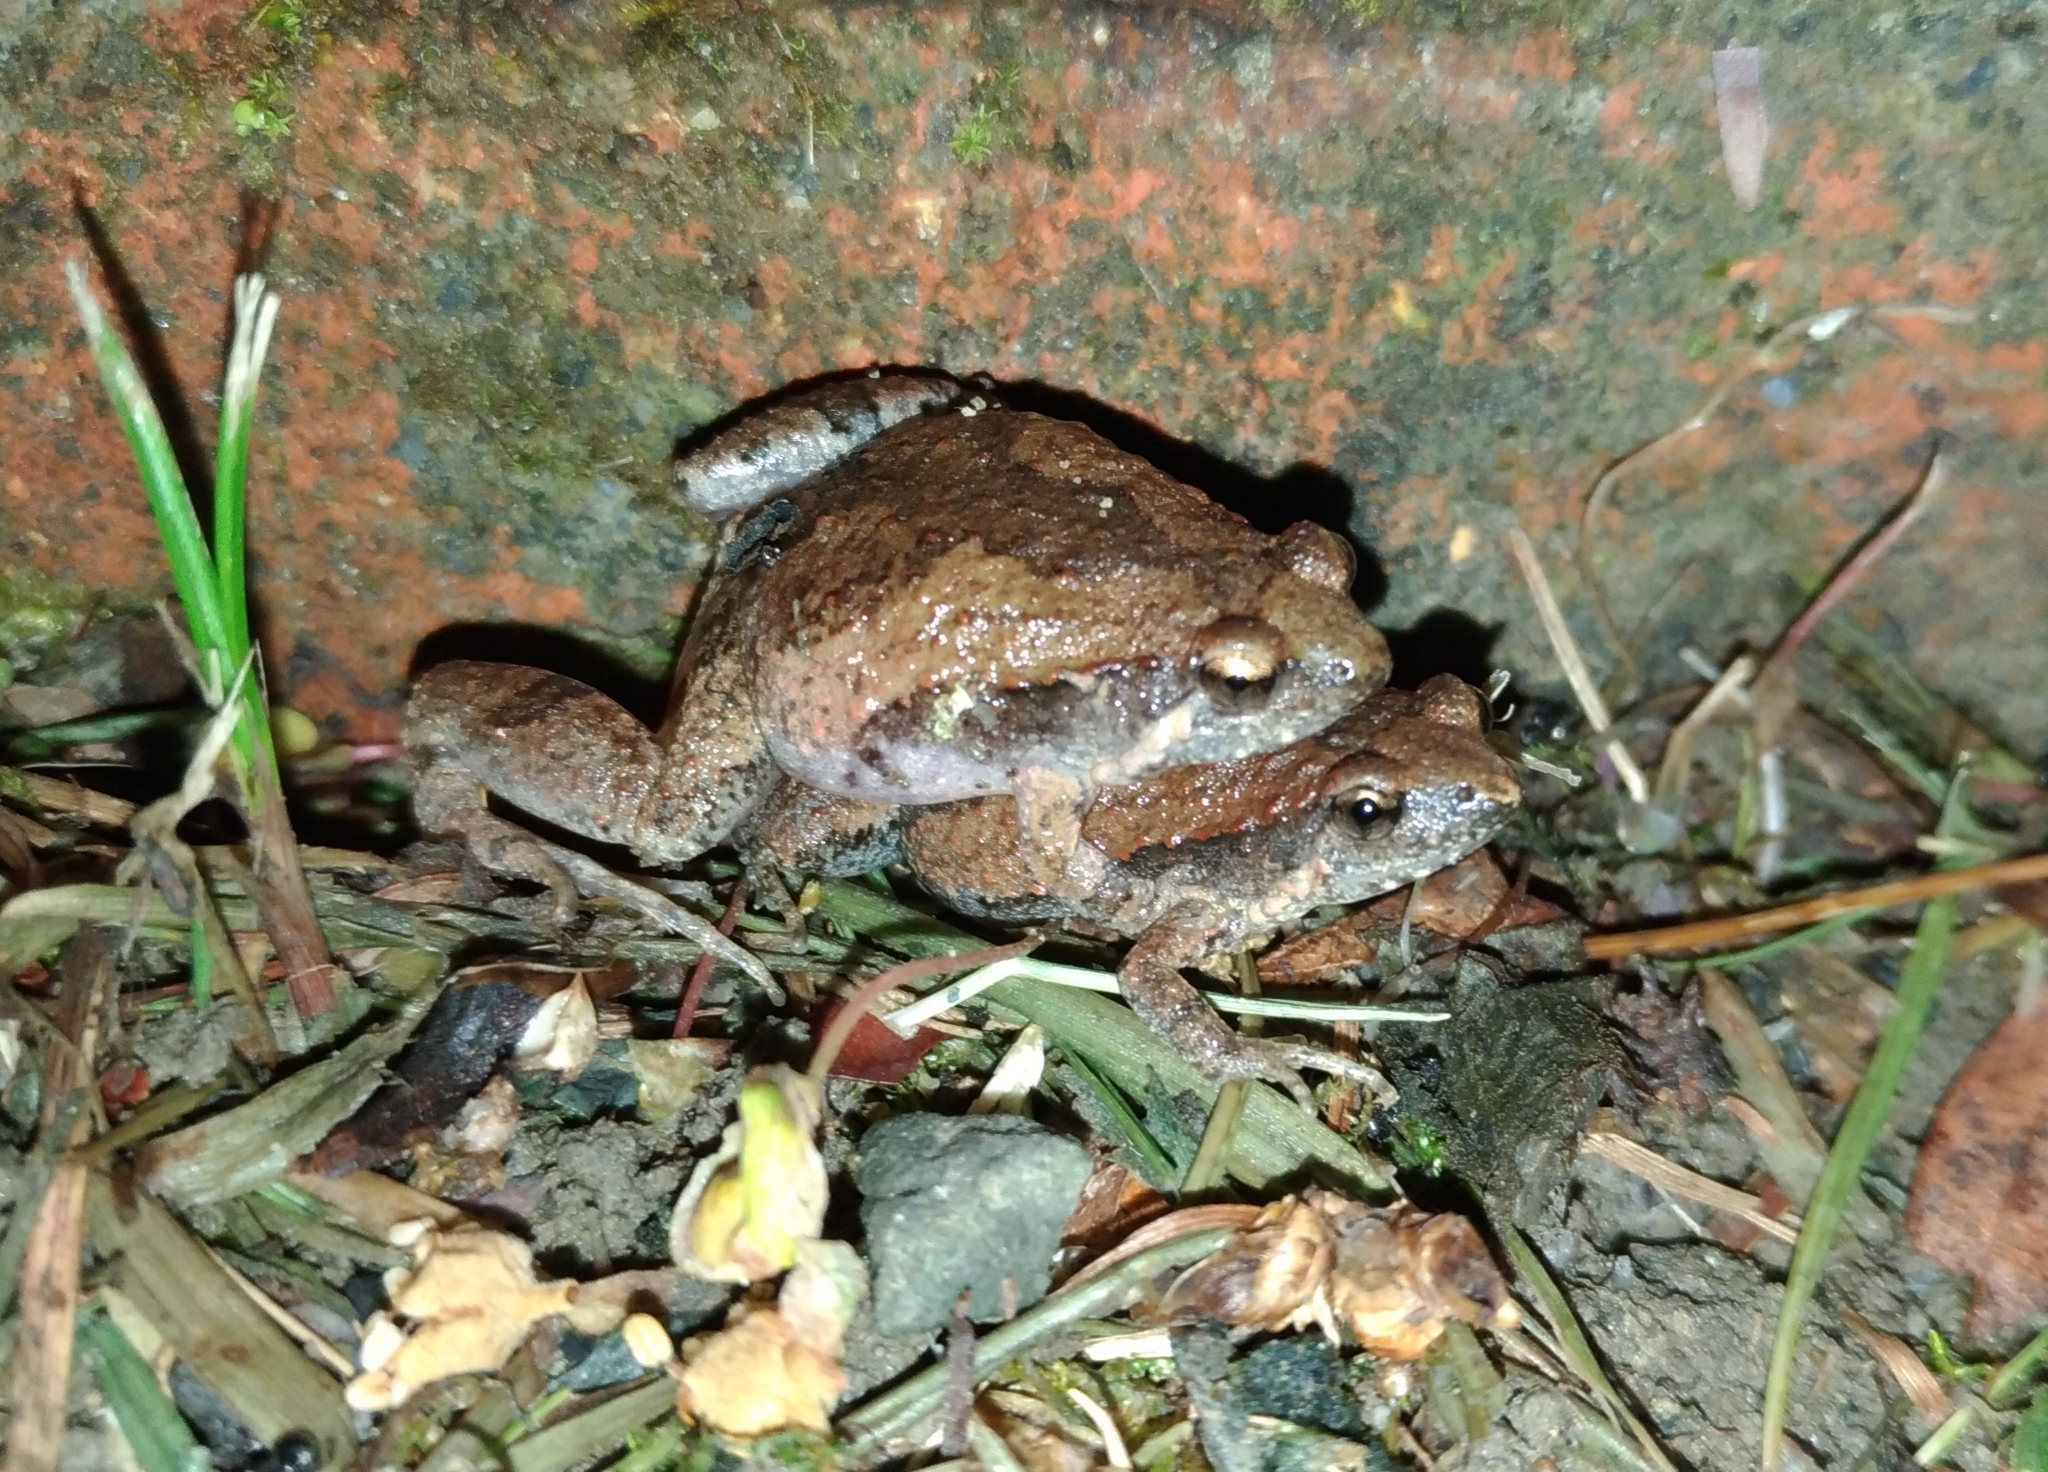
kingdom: Animalia
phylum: Chordata
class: Amphibia
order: Anura
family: Microhylidae
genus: Microhyla
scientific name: Microhyla fissipes
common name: Ornate narrow-mouthed frog
